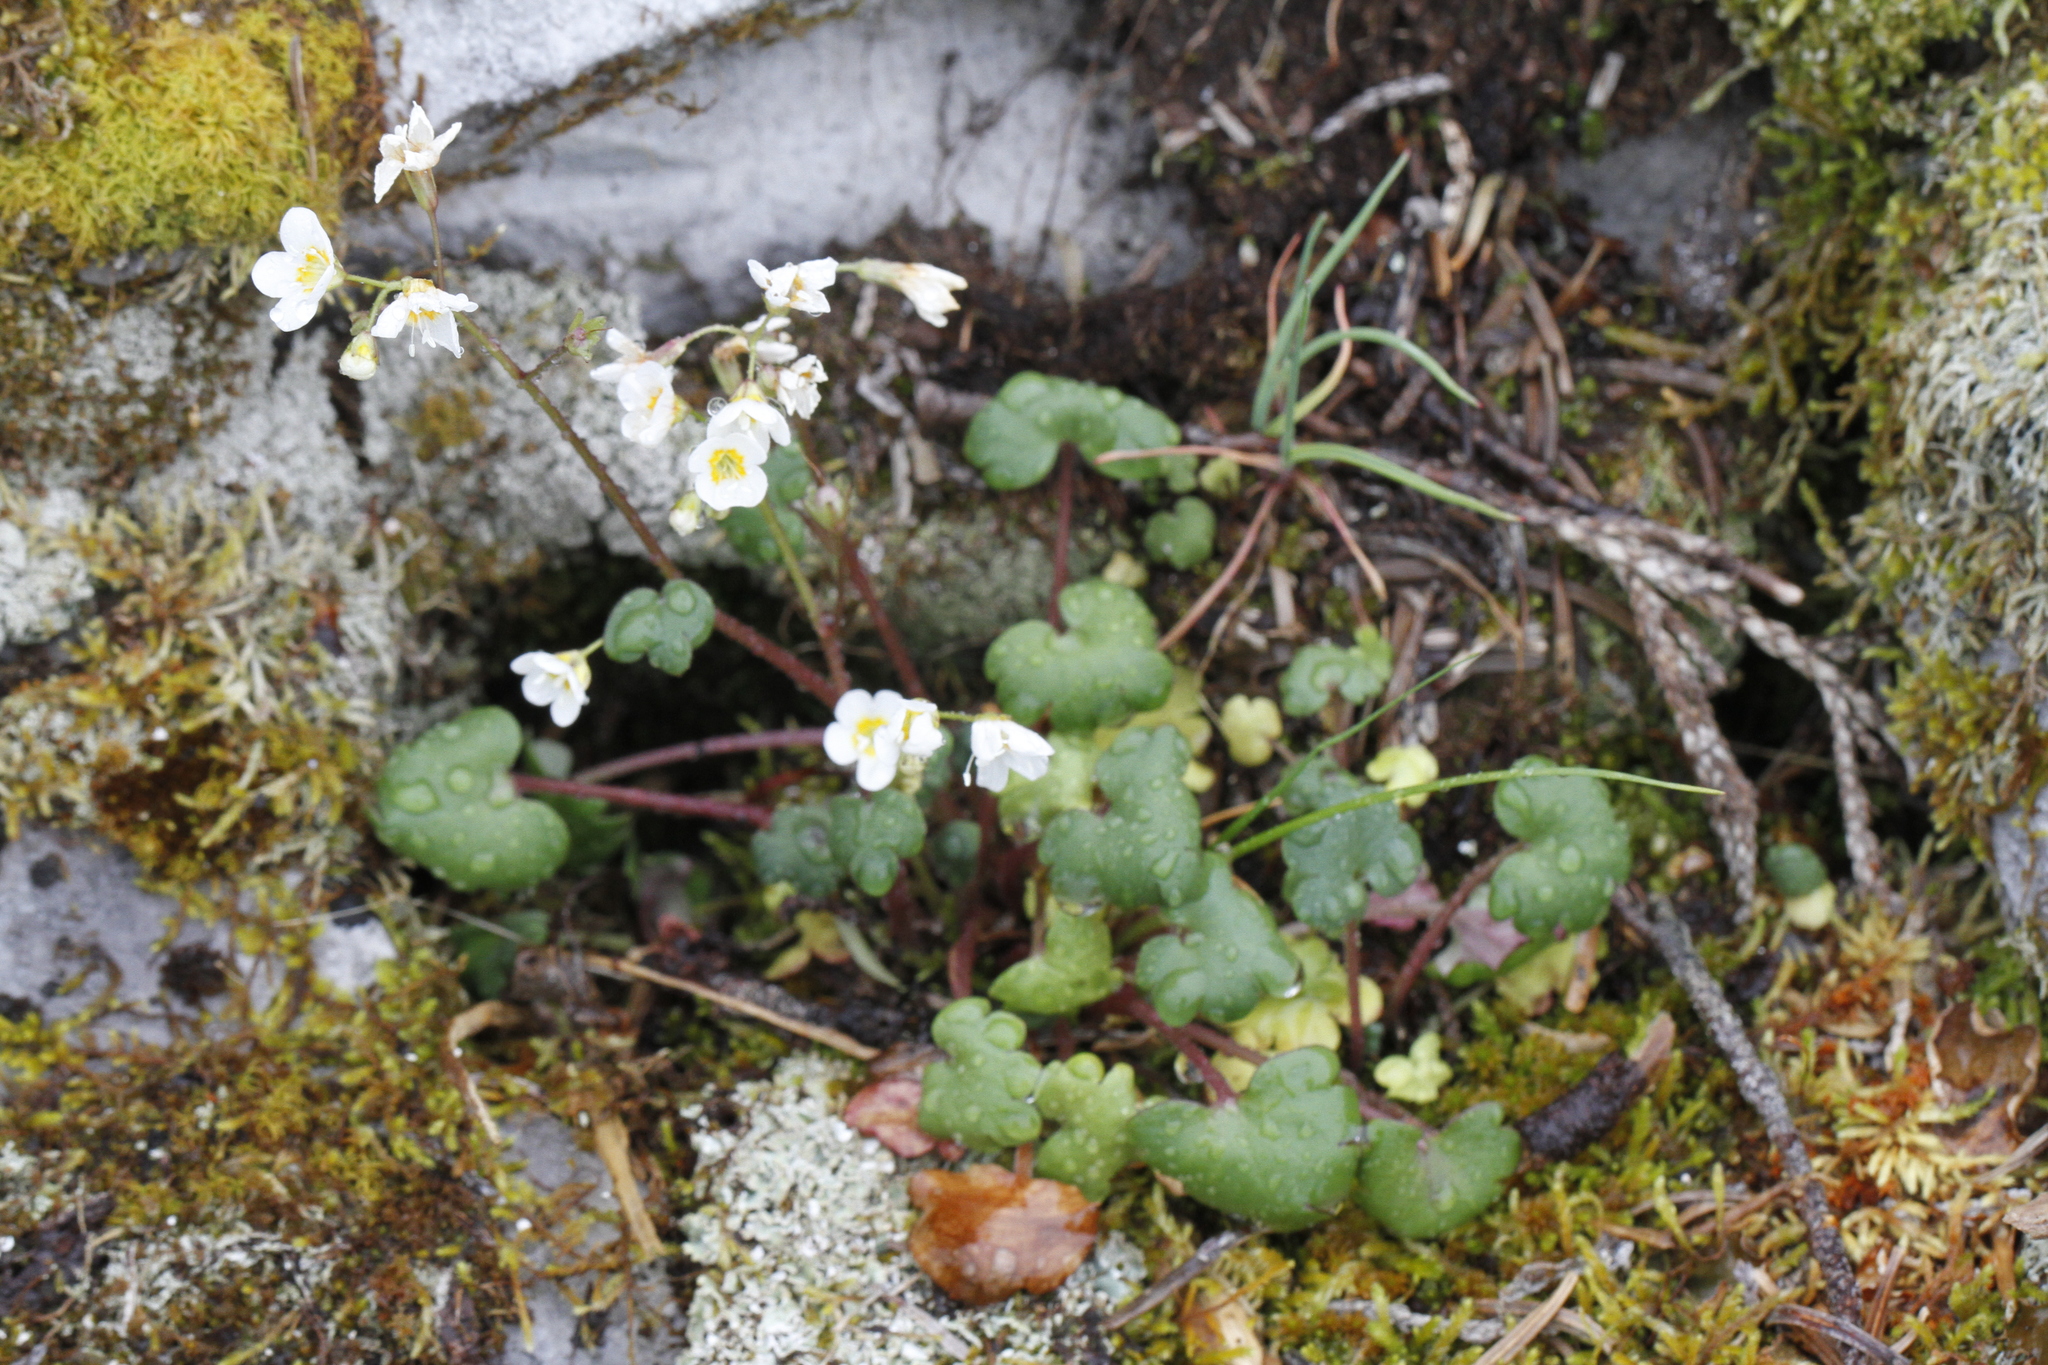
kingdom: Plantae
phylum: Tracheophyta
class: Magnoliopsida
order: Boraginales
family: Hydrophyllaceae
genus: Romanzoffia
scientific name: Romanzoffia sitchensis
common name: Sitka mistmaid
